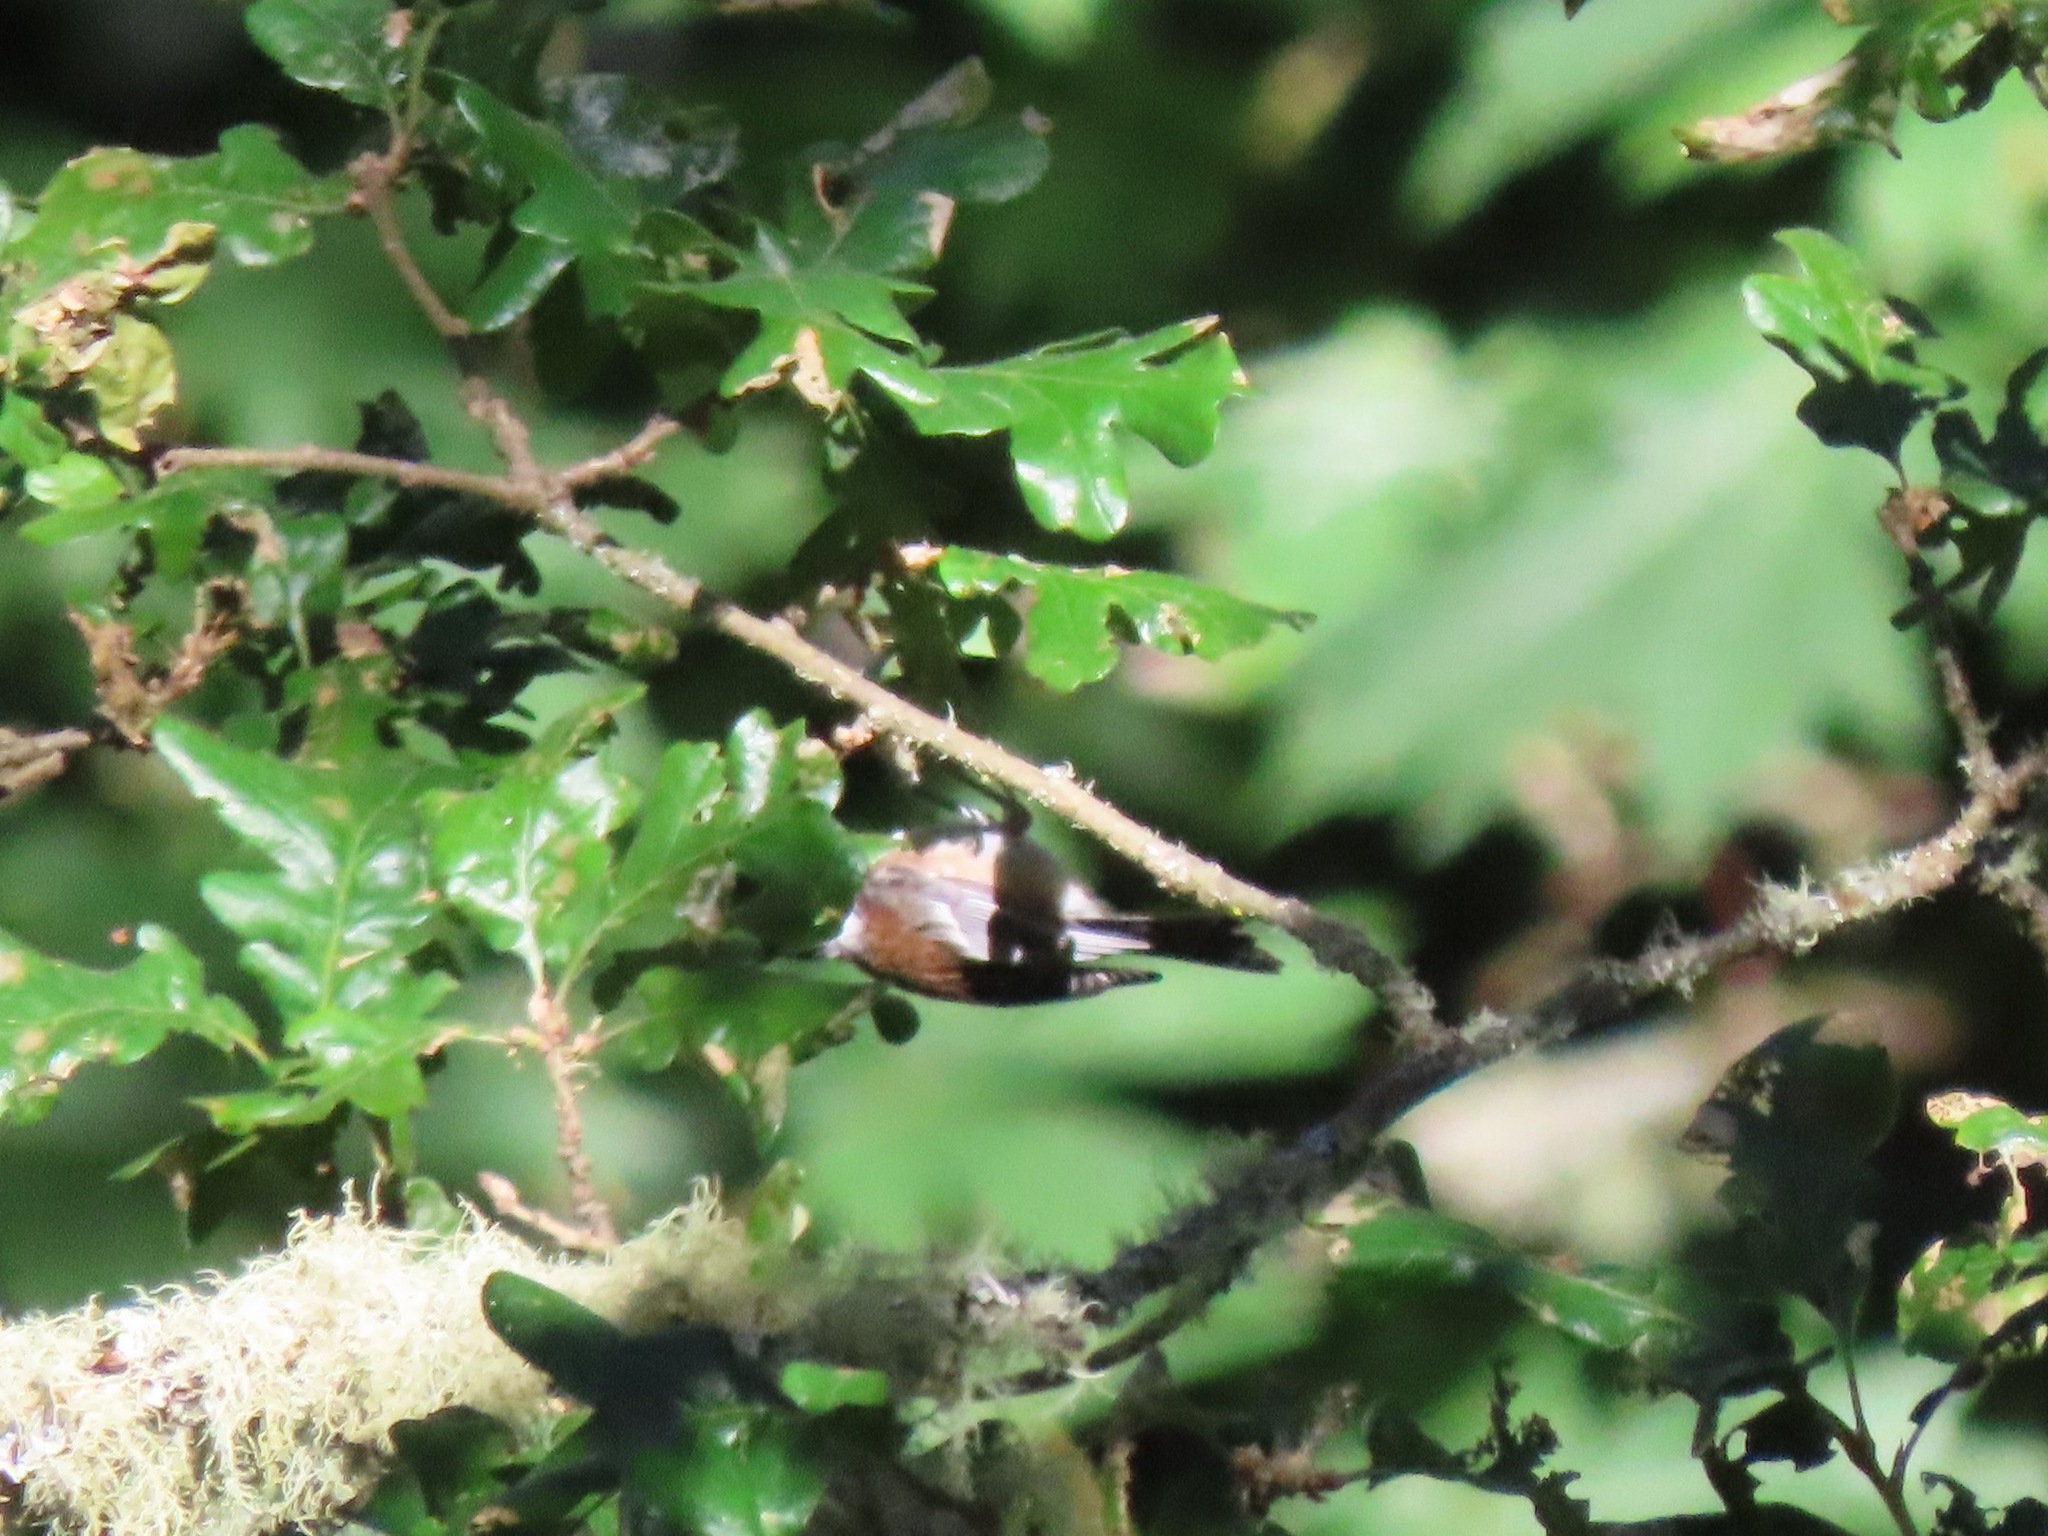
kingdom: Animalia
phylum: Chordata
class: Aves
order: Passeriformes
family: Paridae
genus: Poecile
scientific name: Poecile rufescens
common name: Chestnut-backed chickadee
